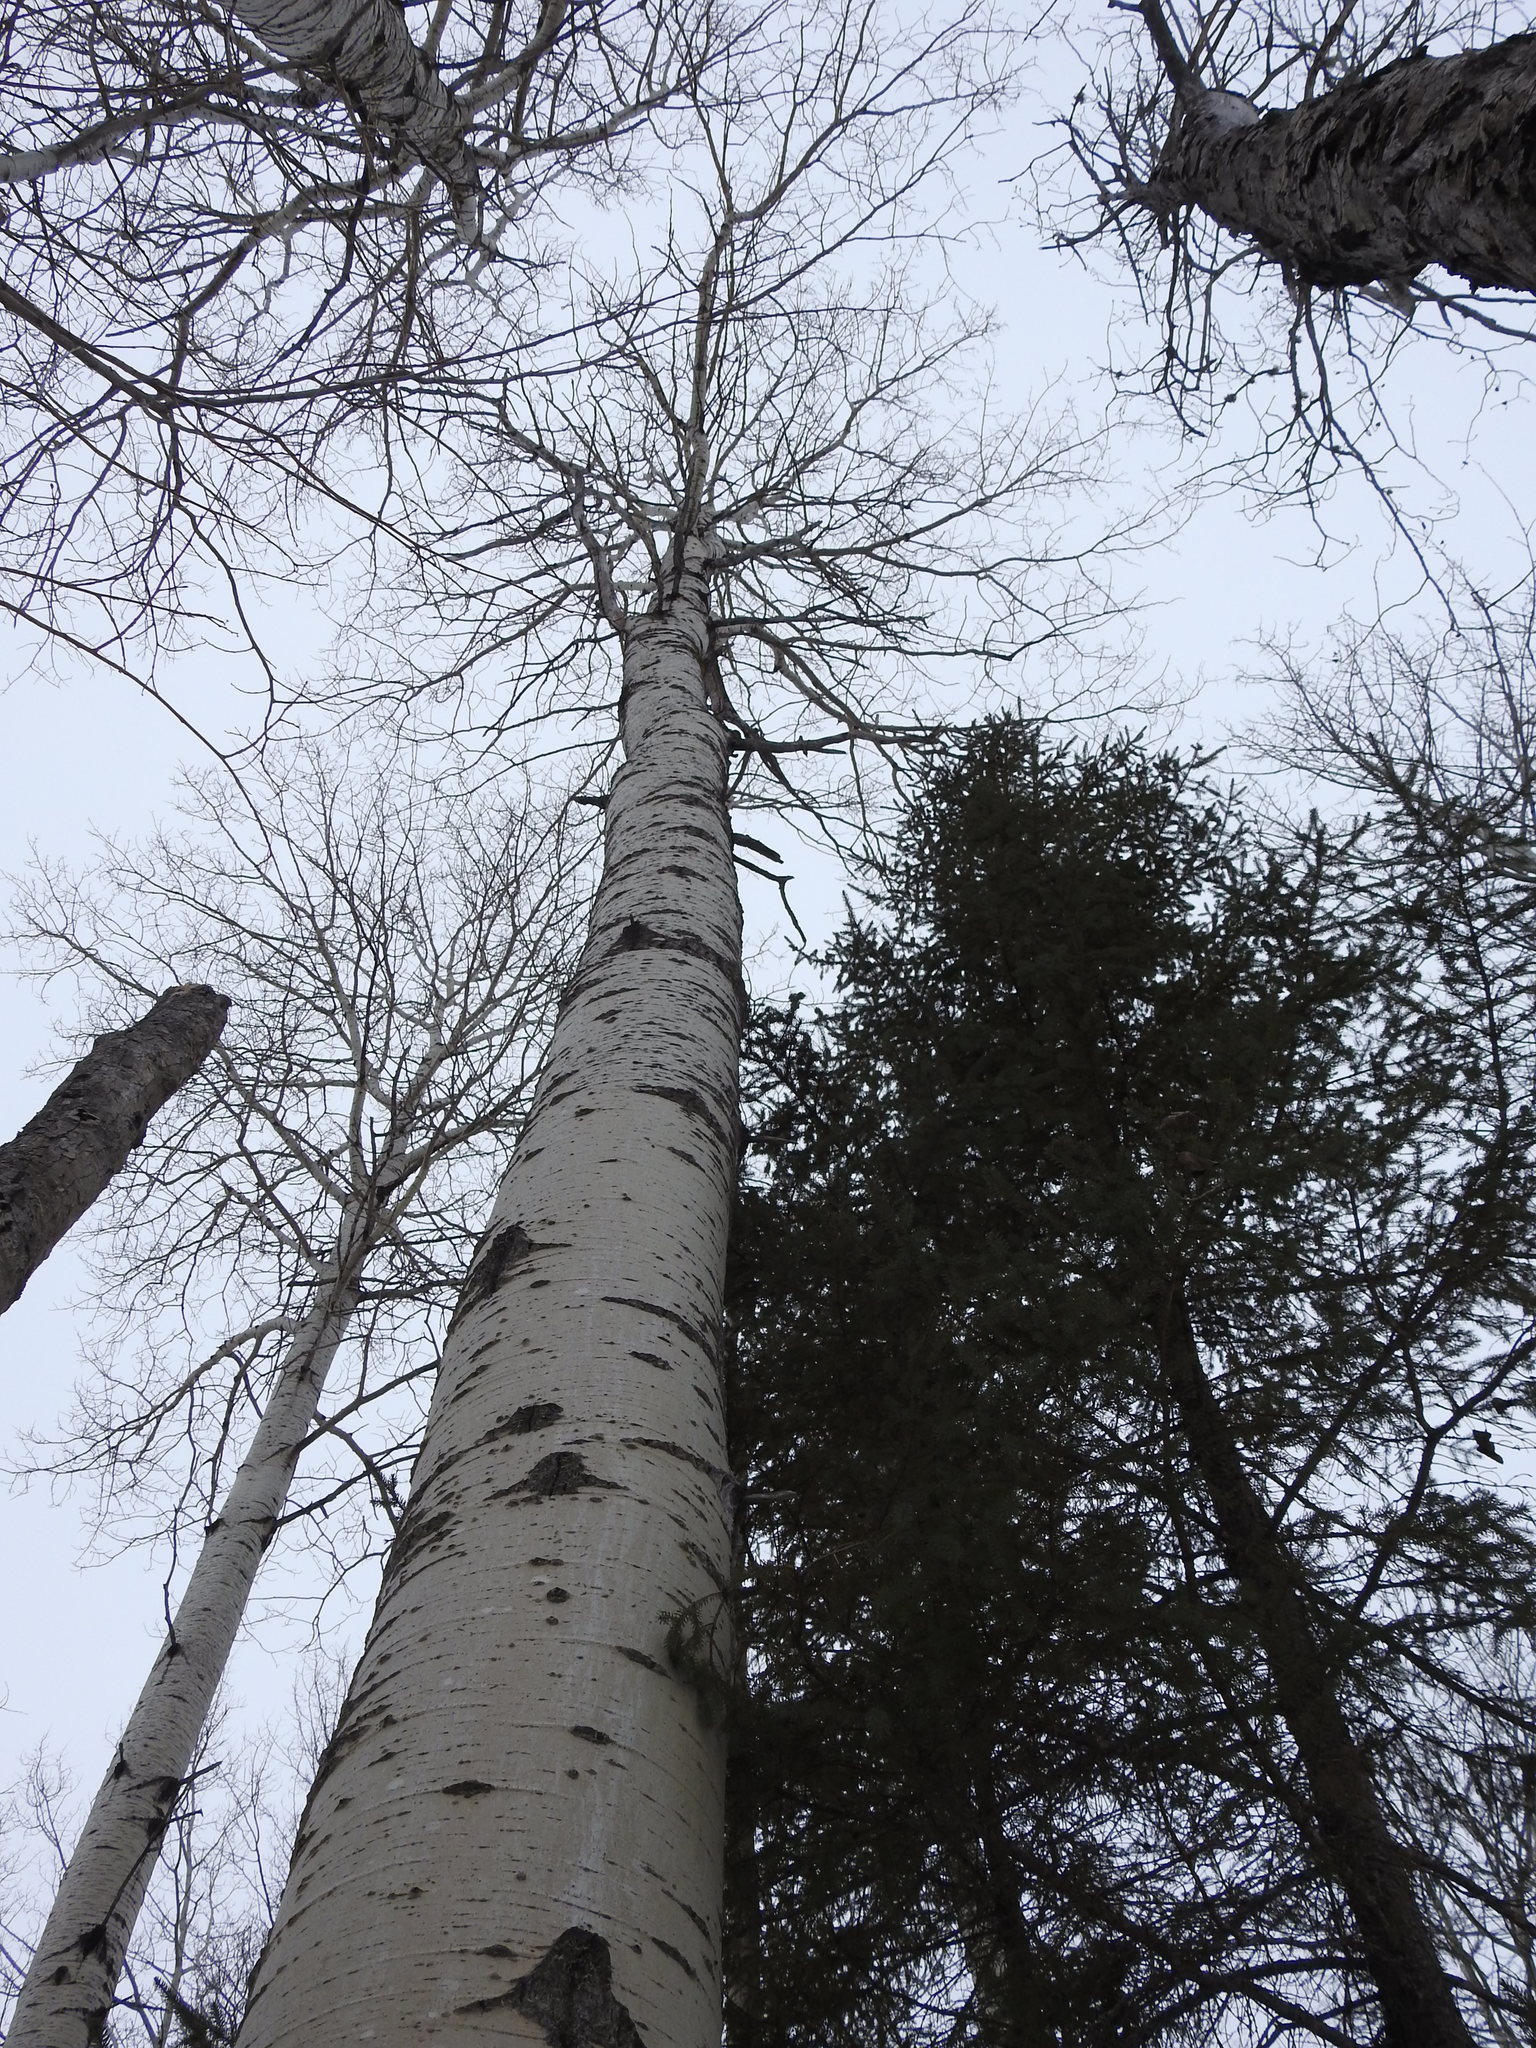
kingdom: Plantae
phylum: Tracheophyta
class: Magnoliopsida
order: Malpighiales
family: Salicaceae
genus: Populus
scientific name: Populus tremuloides
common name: Quaking aspen
